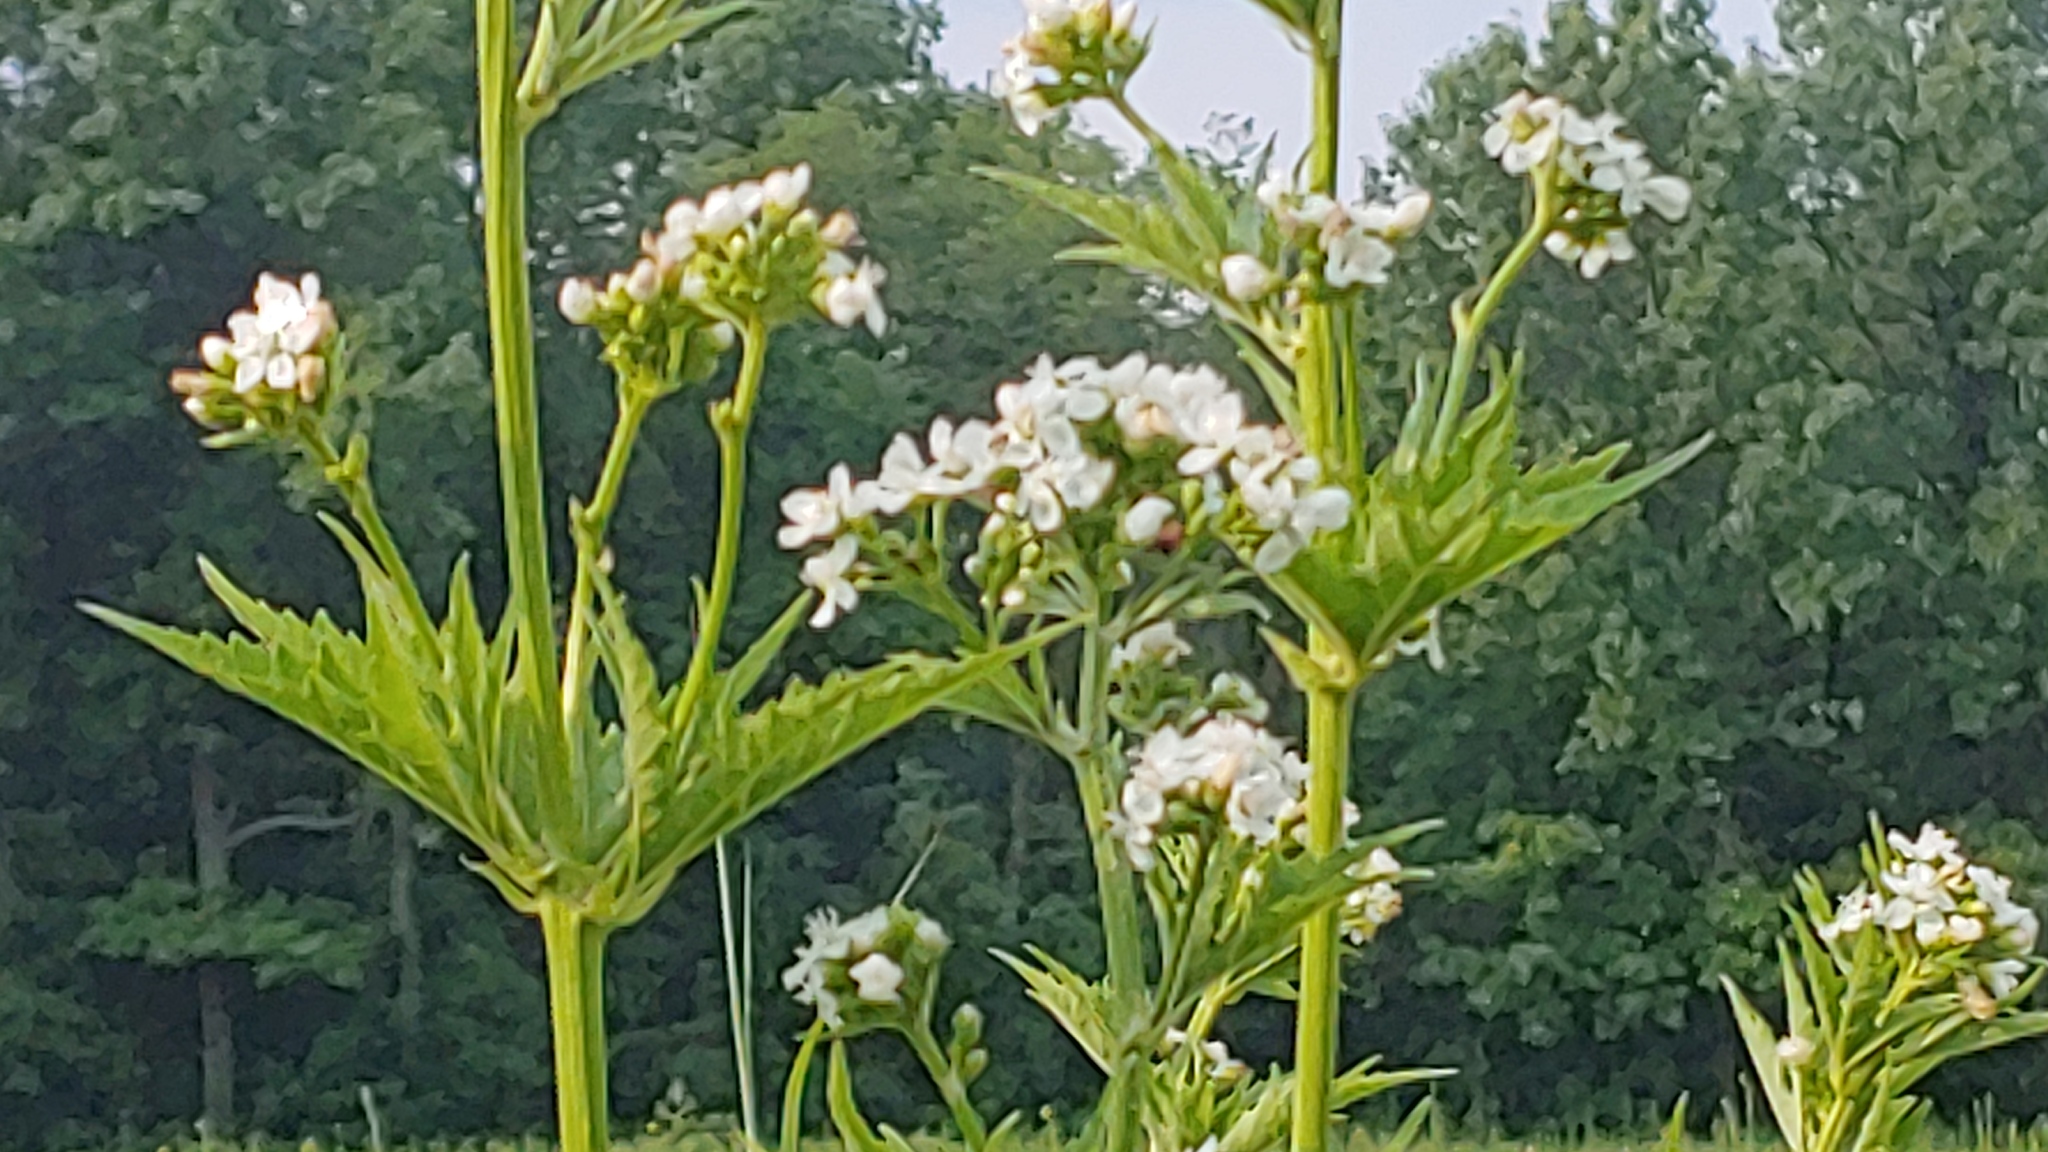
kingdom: Plantae
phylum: Tracheophyta
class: Magnoliopsida
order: Malvales
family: Malvaceae
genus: Napaea
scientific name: Napaea dioica
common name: Glade-mallow
